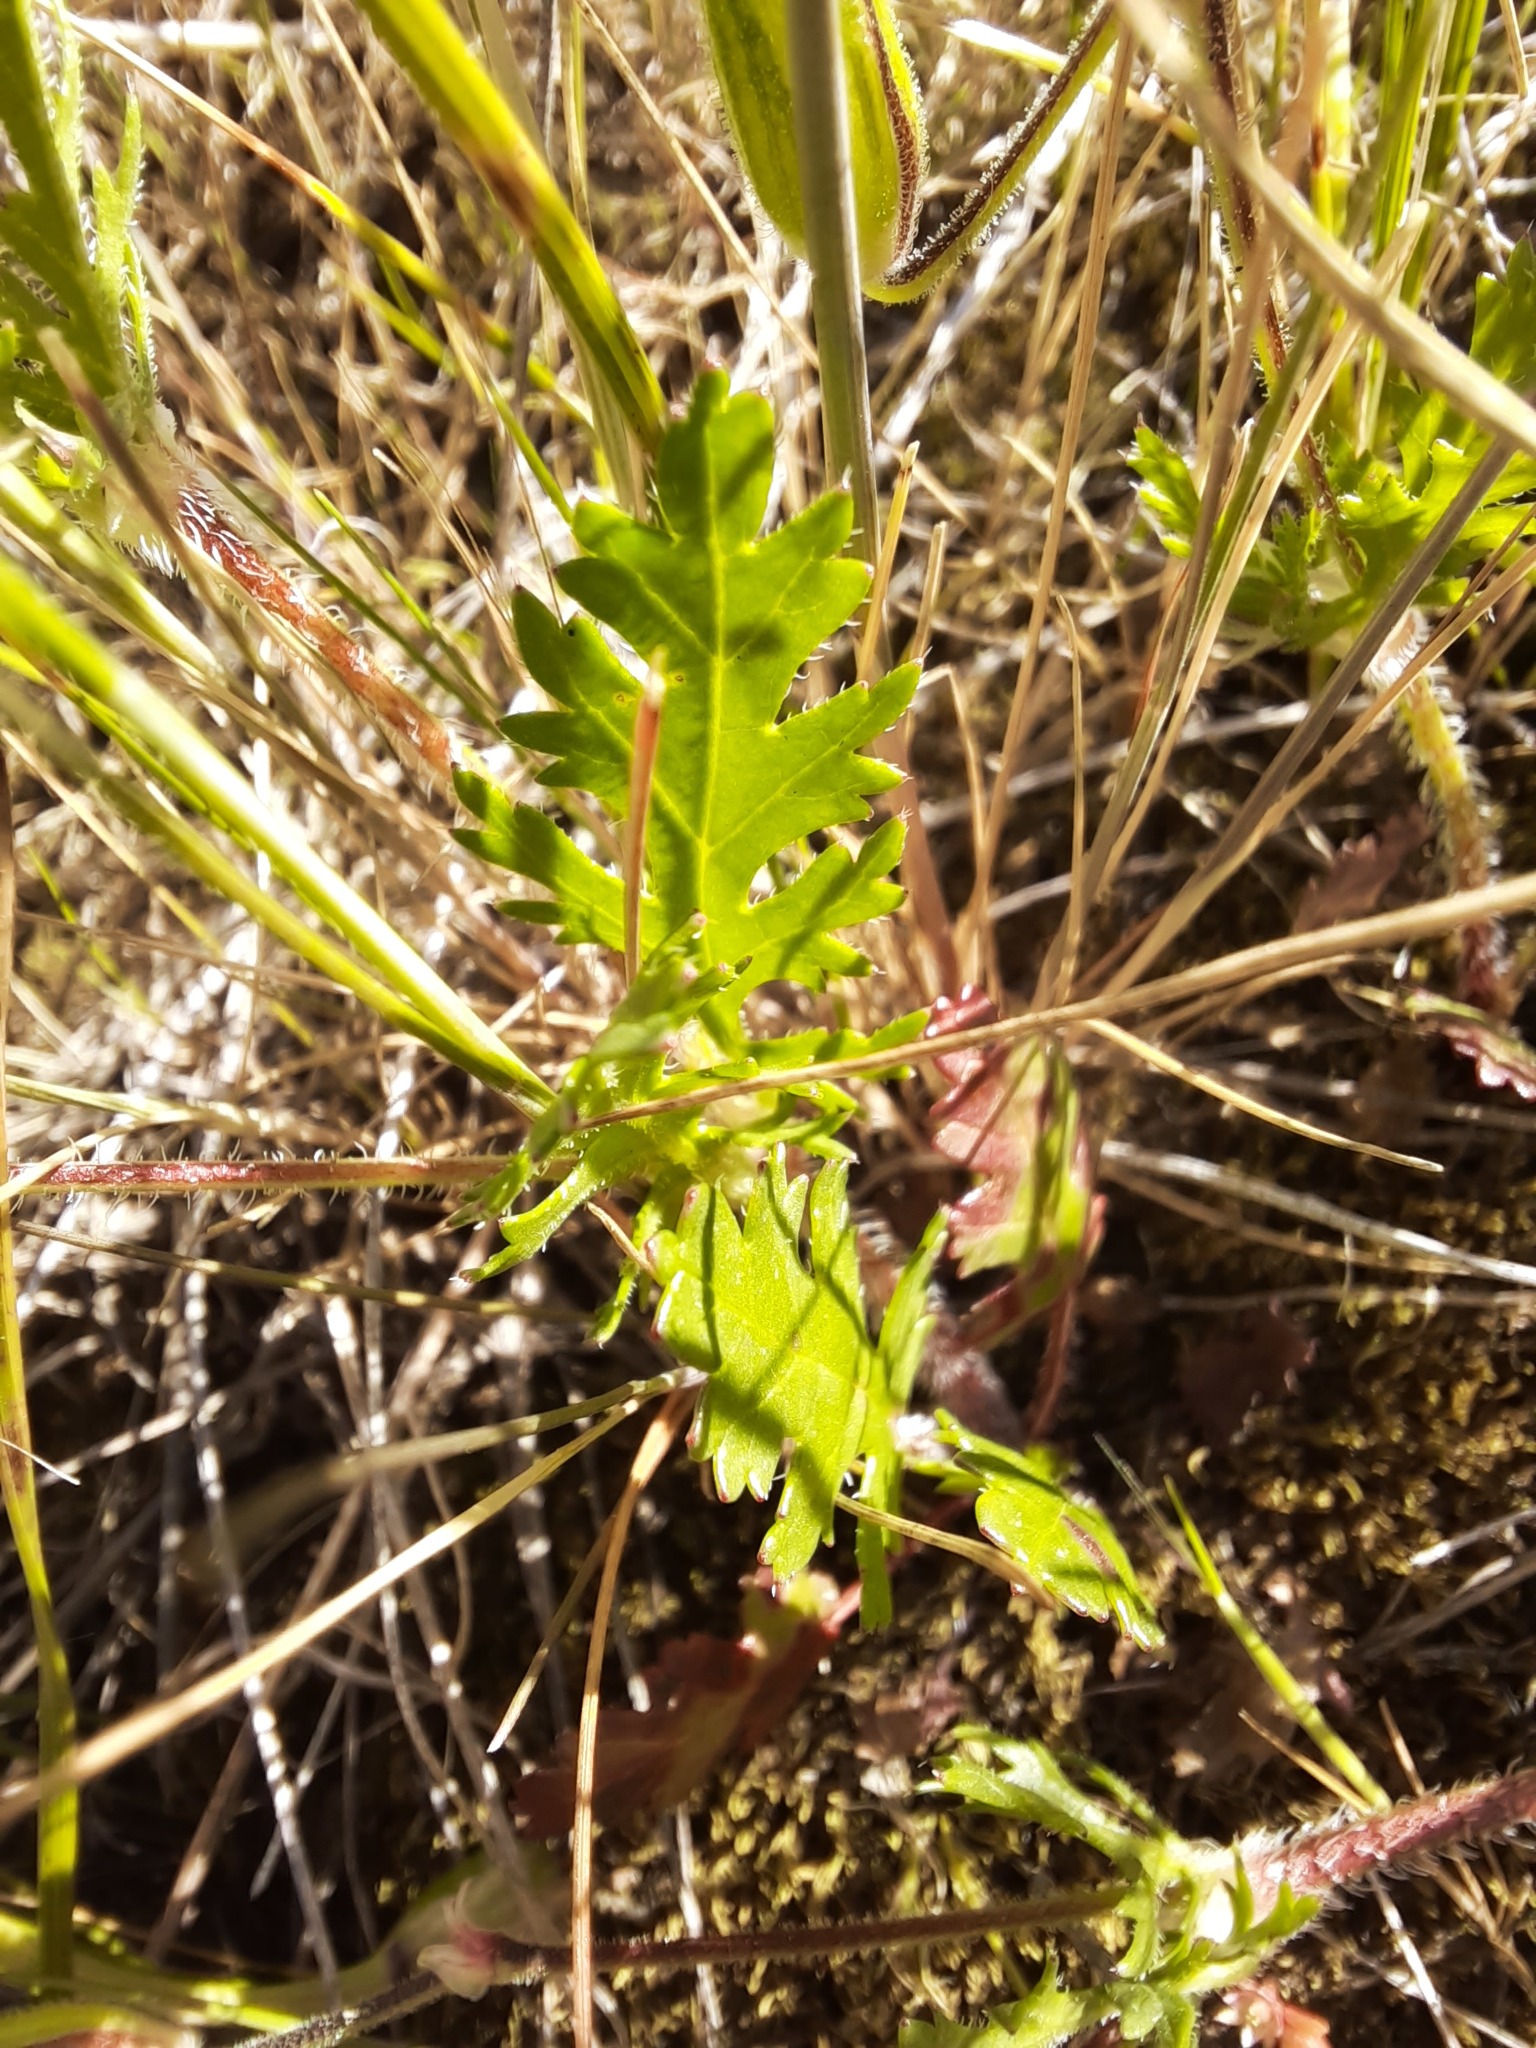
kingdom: Plantae
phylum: Tracheophyta
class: Magnoliopsida
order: Geraniales
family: Geraniaceae
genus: Erodium
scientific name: Erodium botrys
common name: Mediterranean stork's-bill
